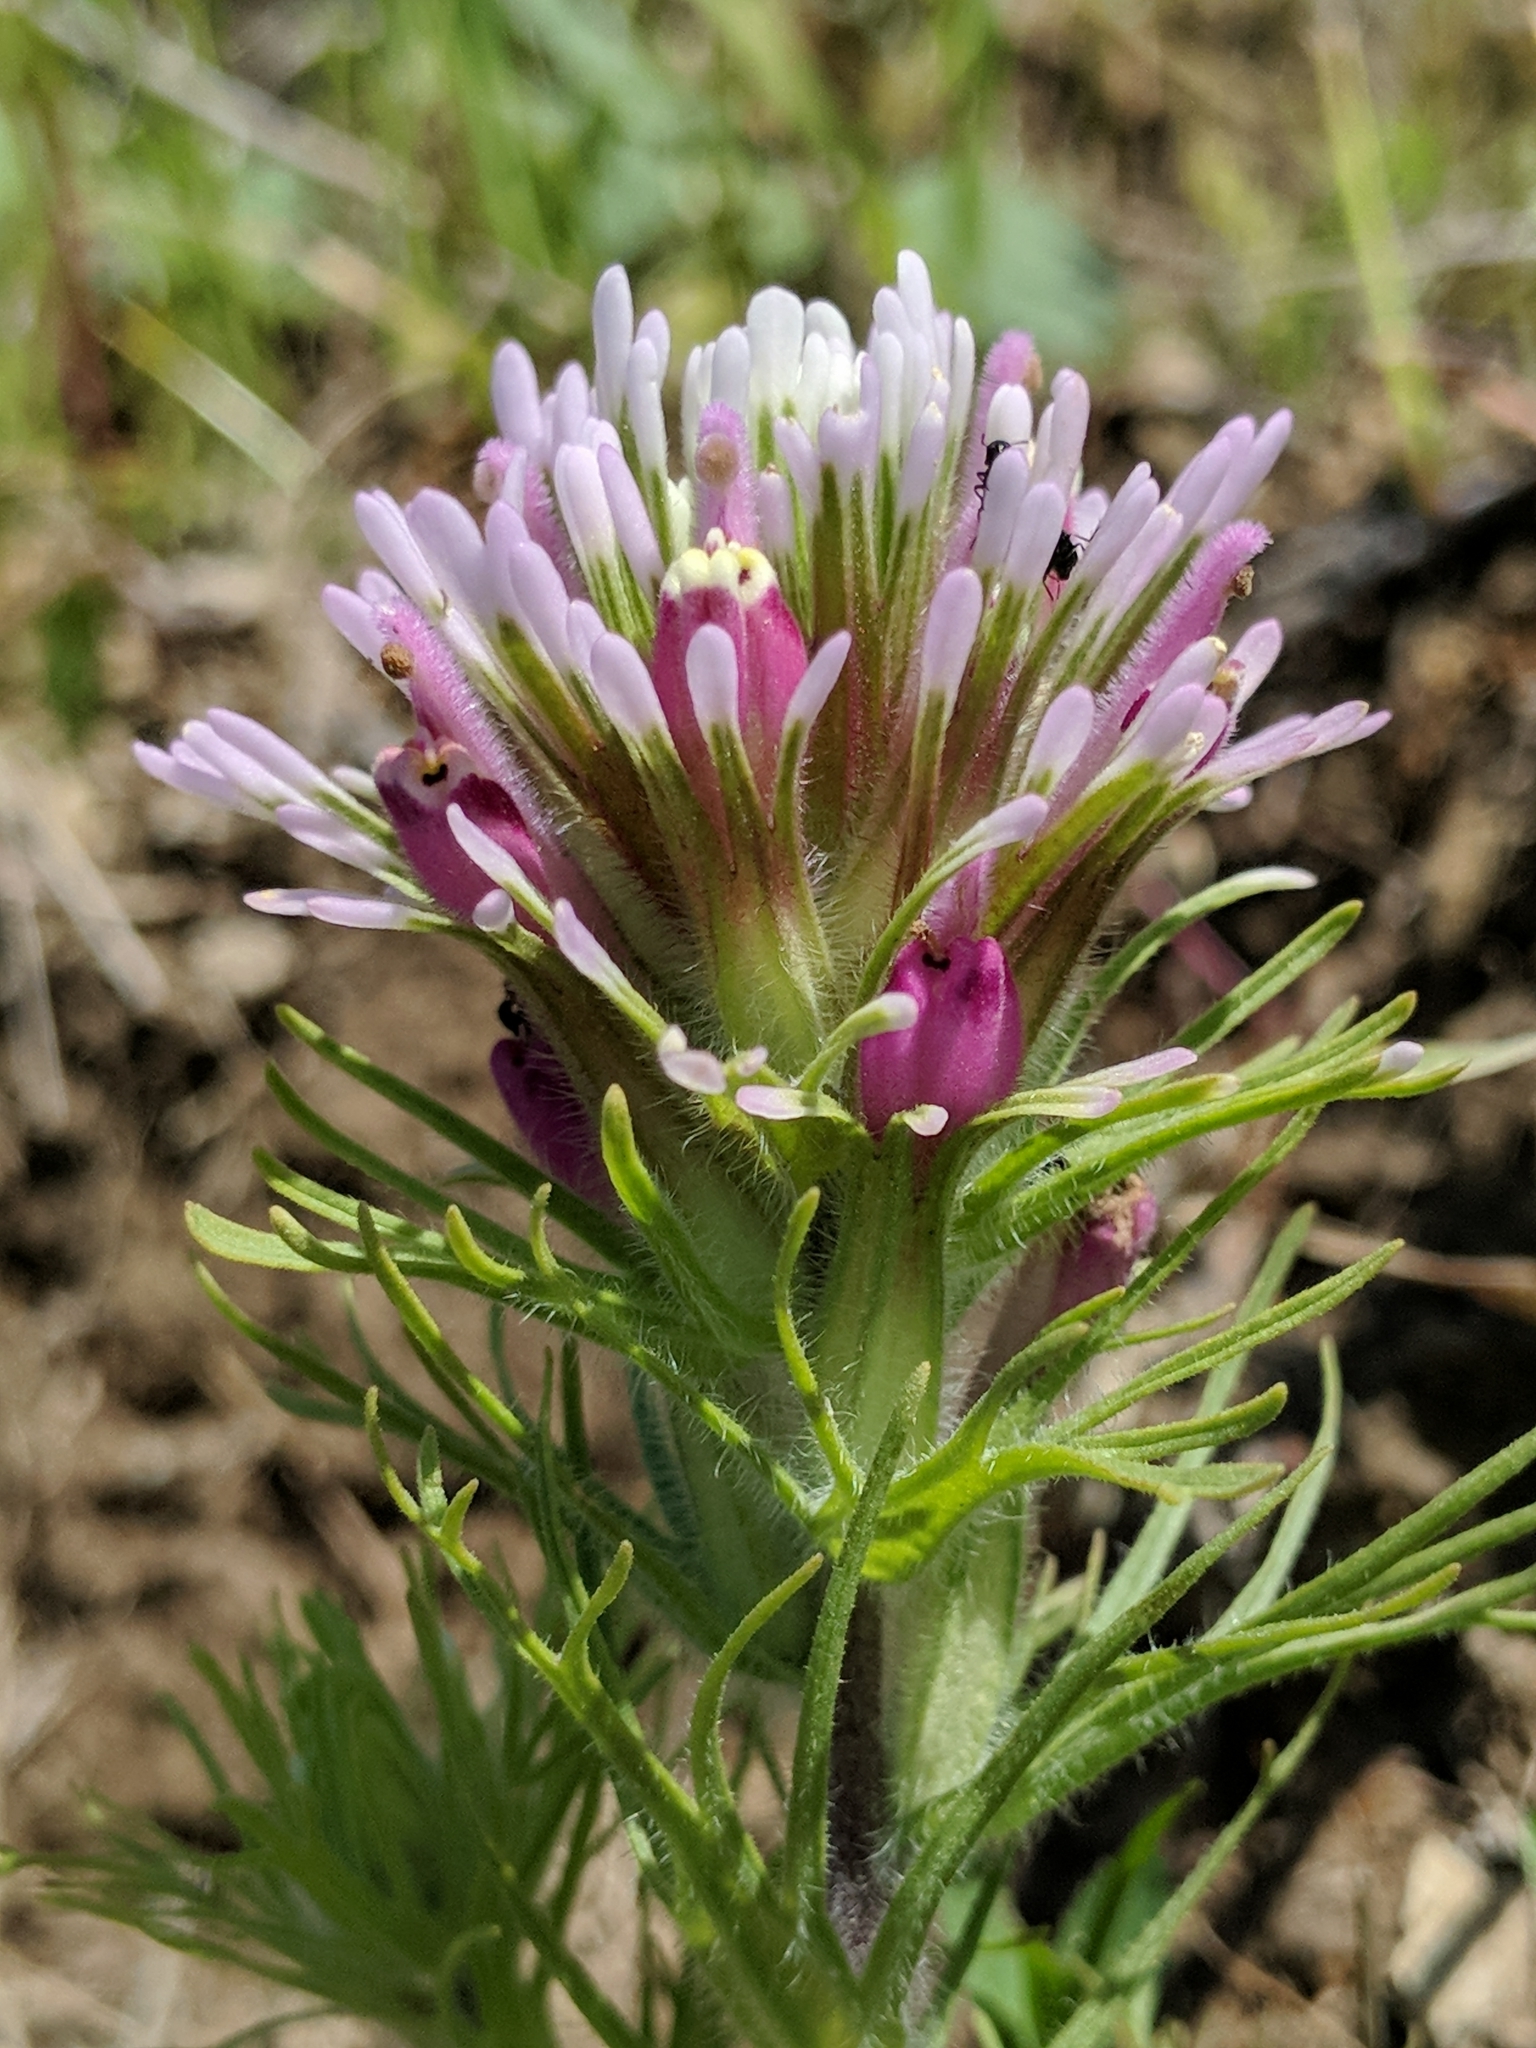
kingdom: Plantae
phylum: Tracheophyta
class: Magnoliopsida
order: Lamiales
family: Orobanchaceae
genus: Castilleja
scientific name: Castilleja exserta
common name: Purple owl-clover
